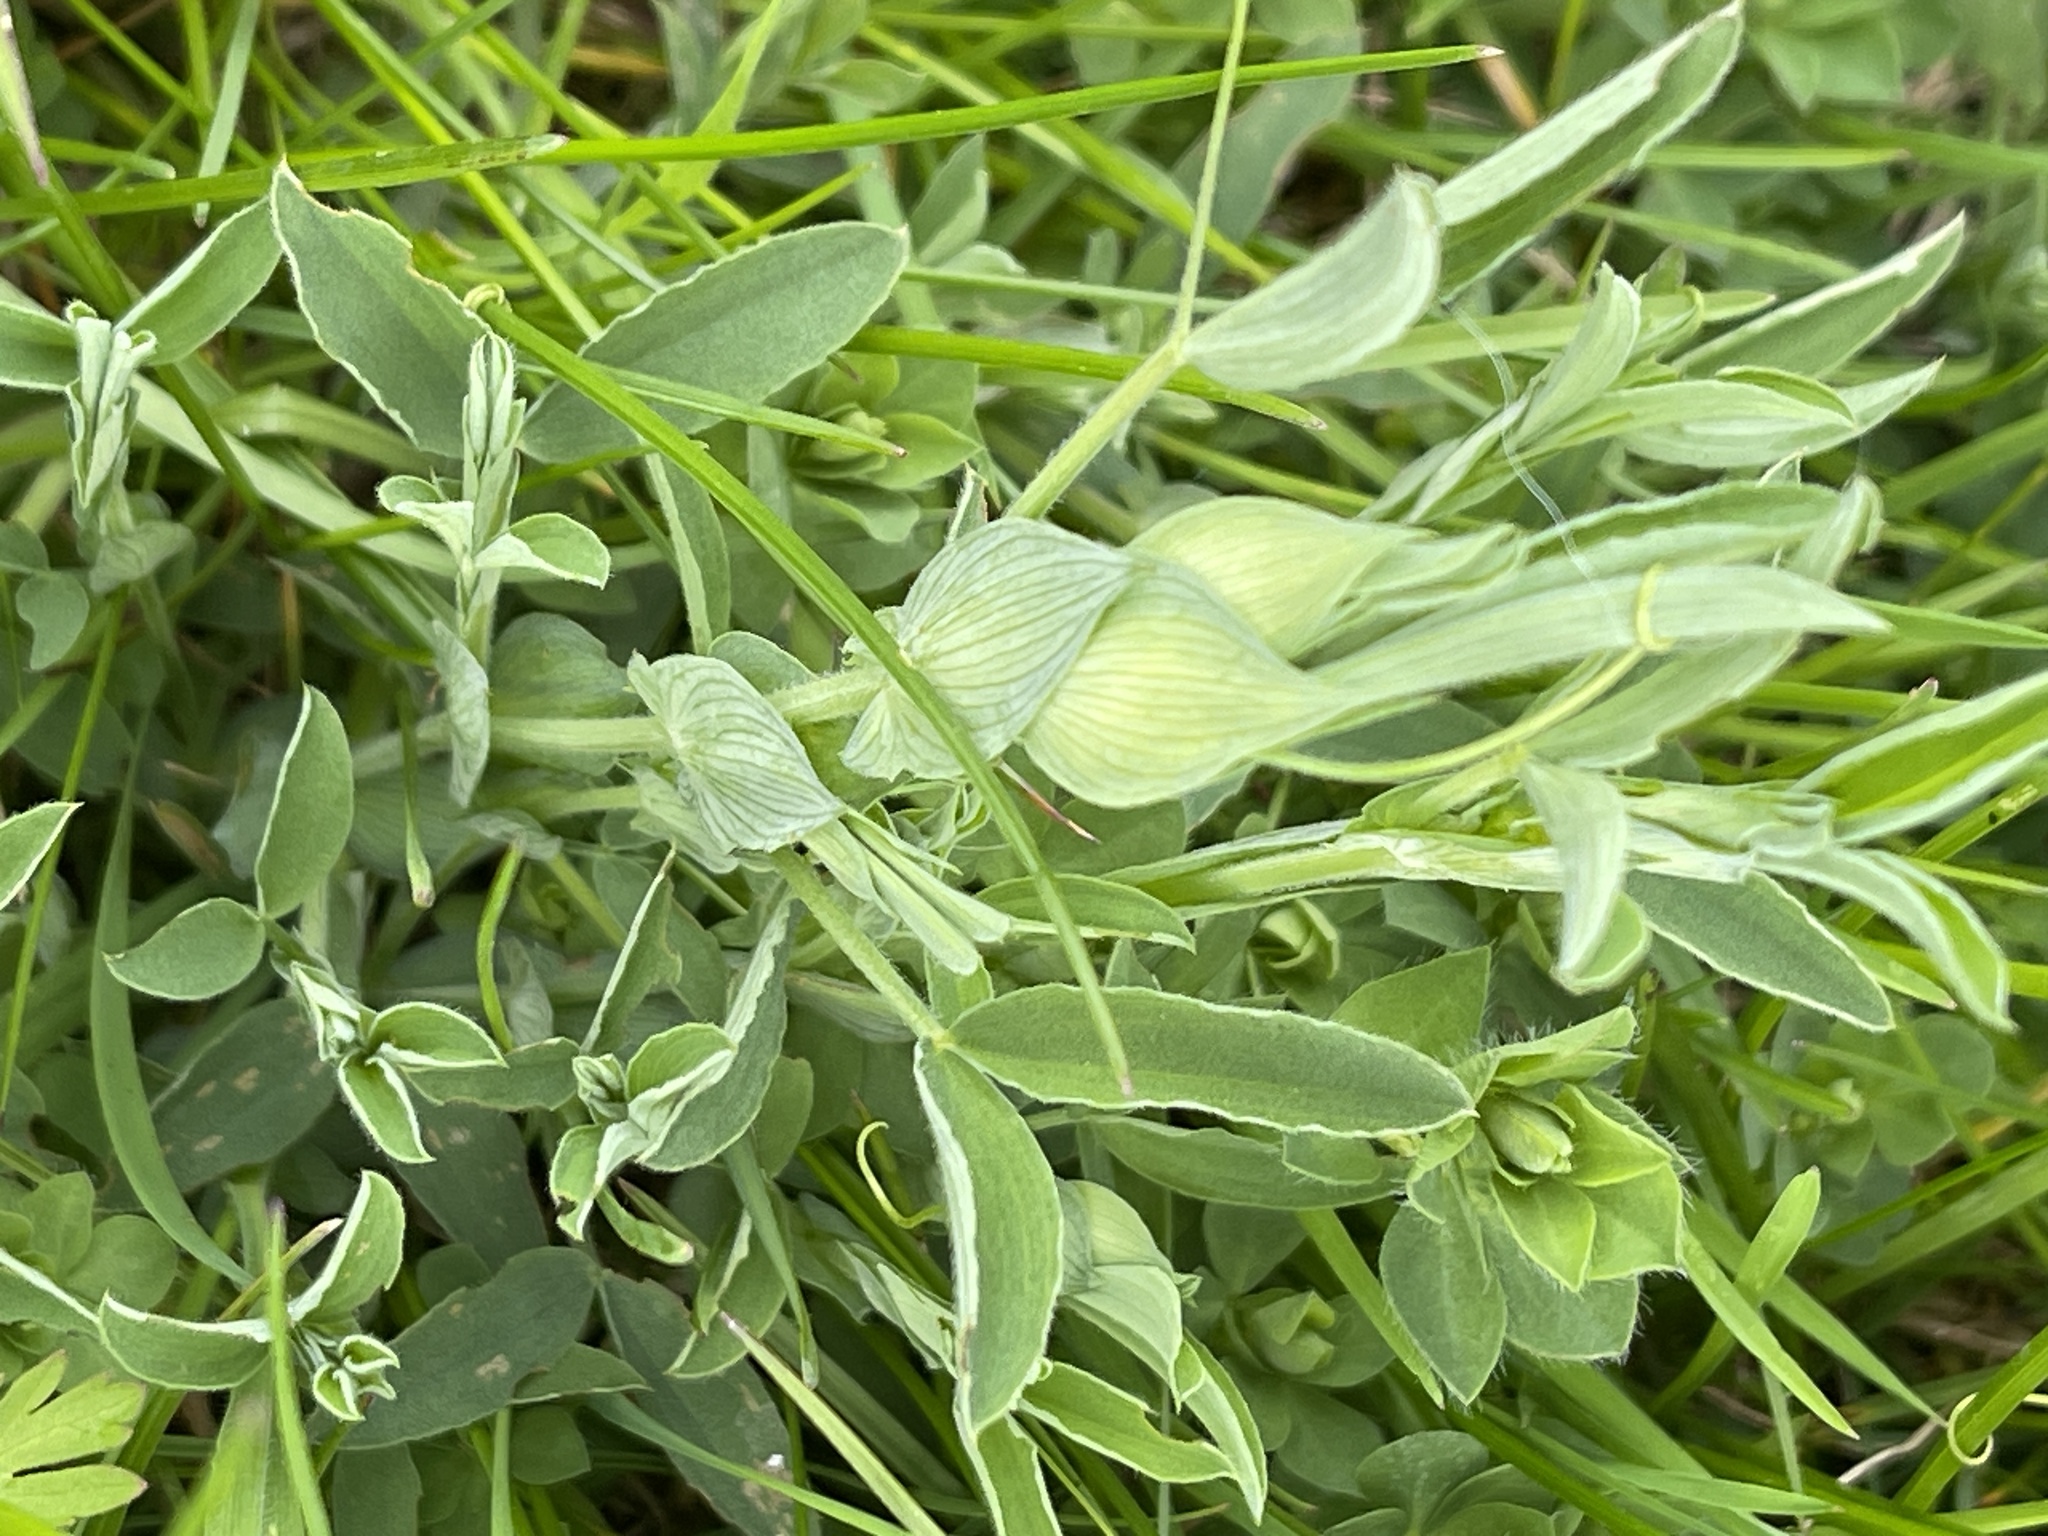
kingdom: Plantae
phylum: Tracheophyta
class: Magnoliopsida
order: Fabales
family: Fabaceae
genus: Lathyrus
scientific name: Lathyrus pratensis
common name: Meadow vetchling
